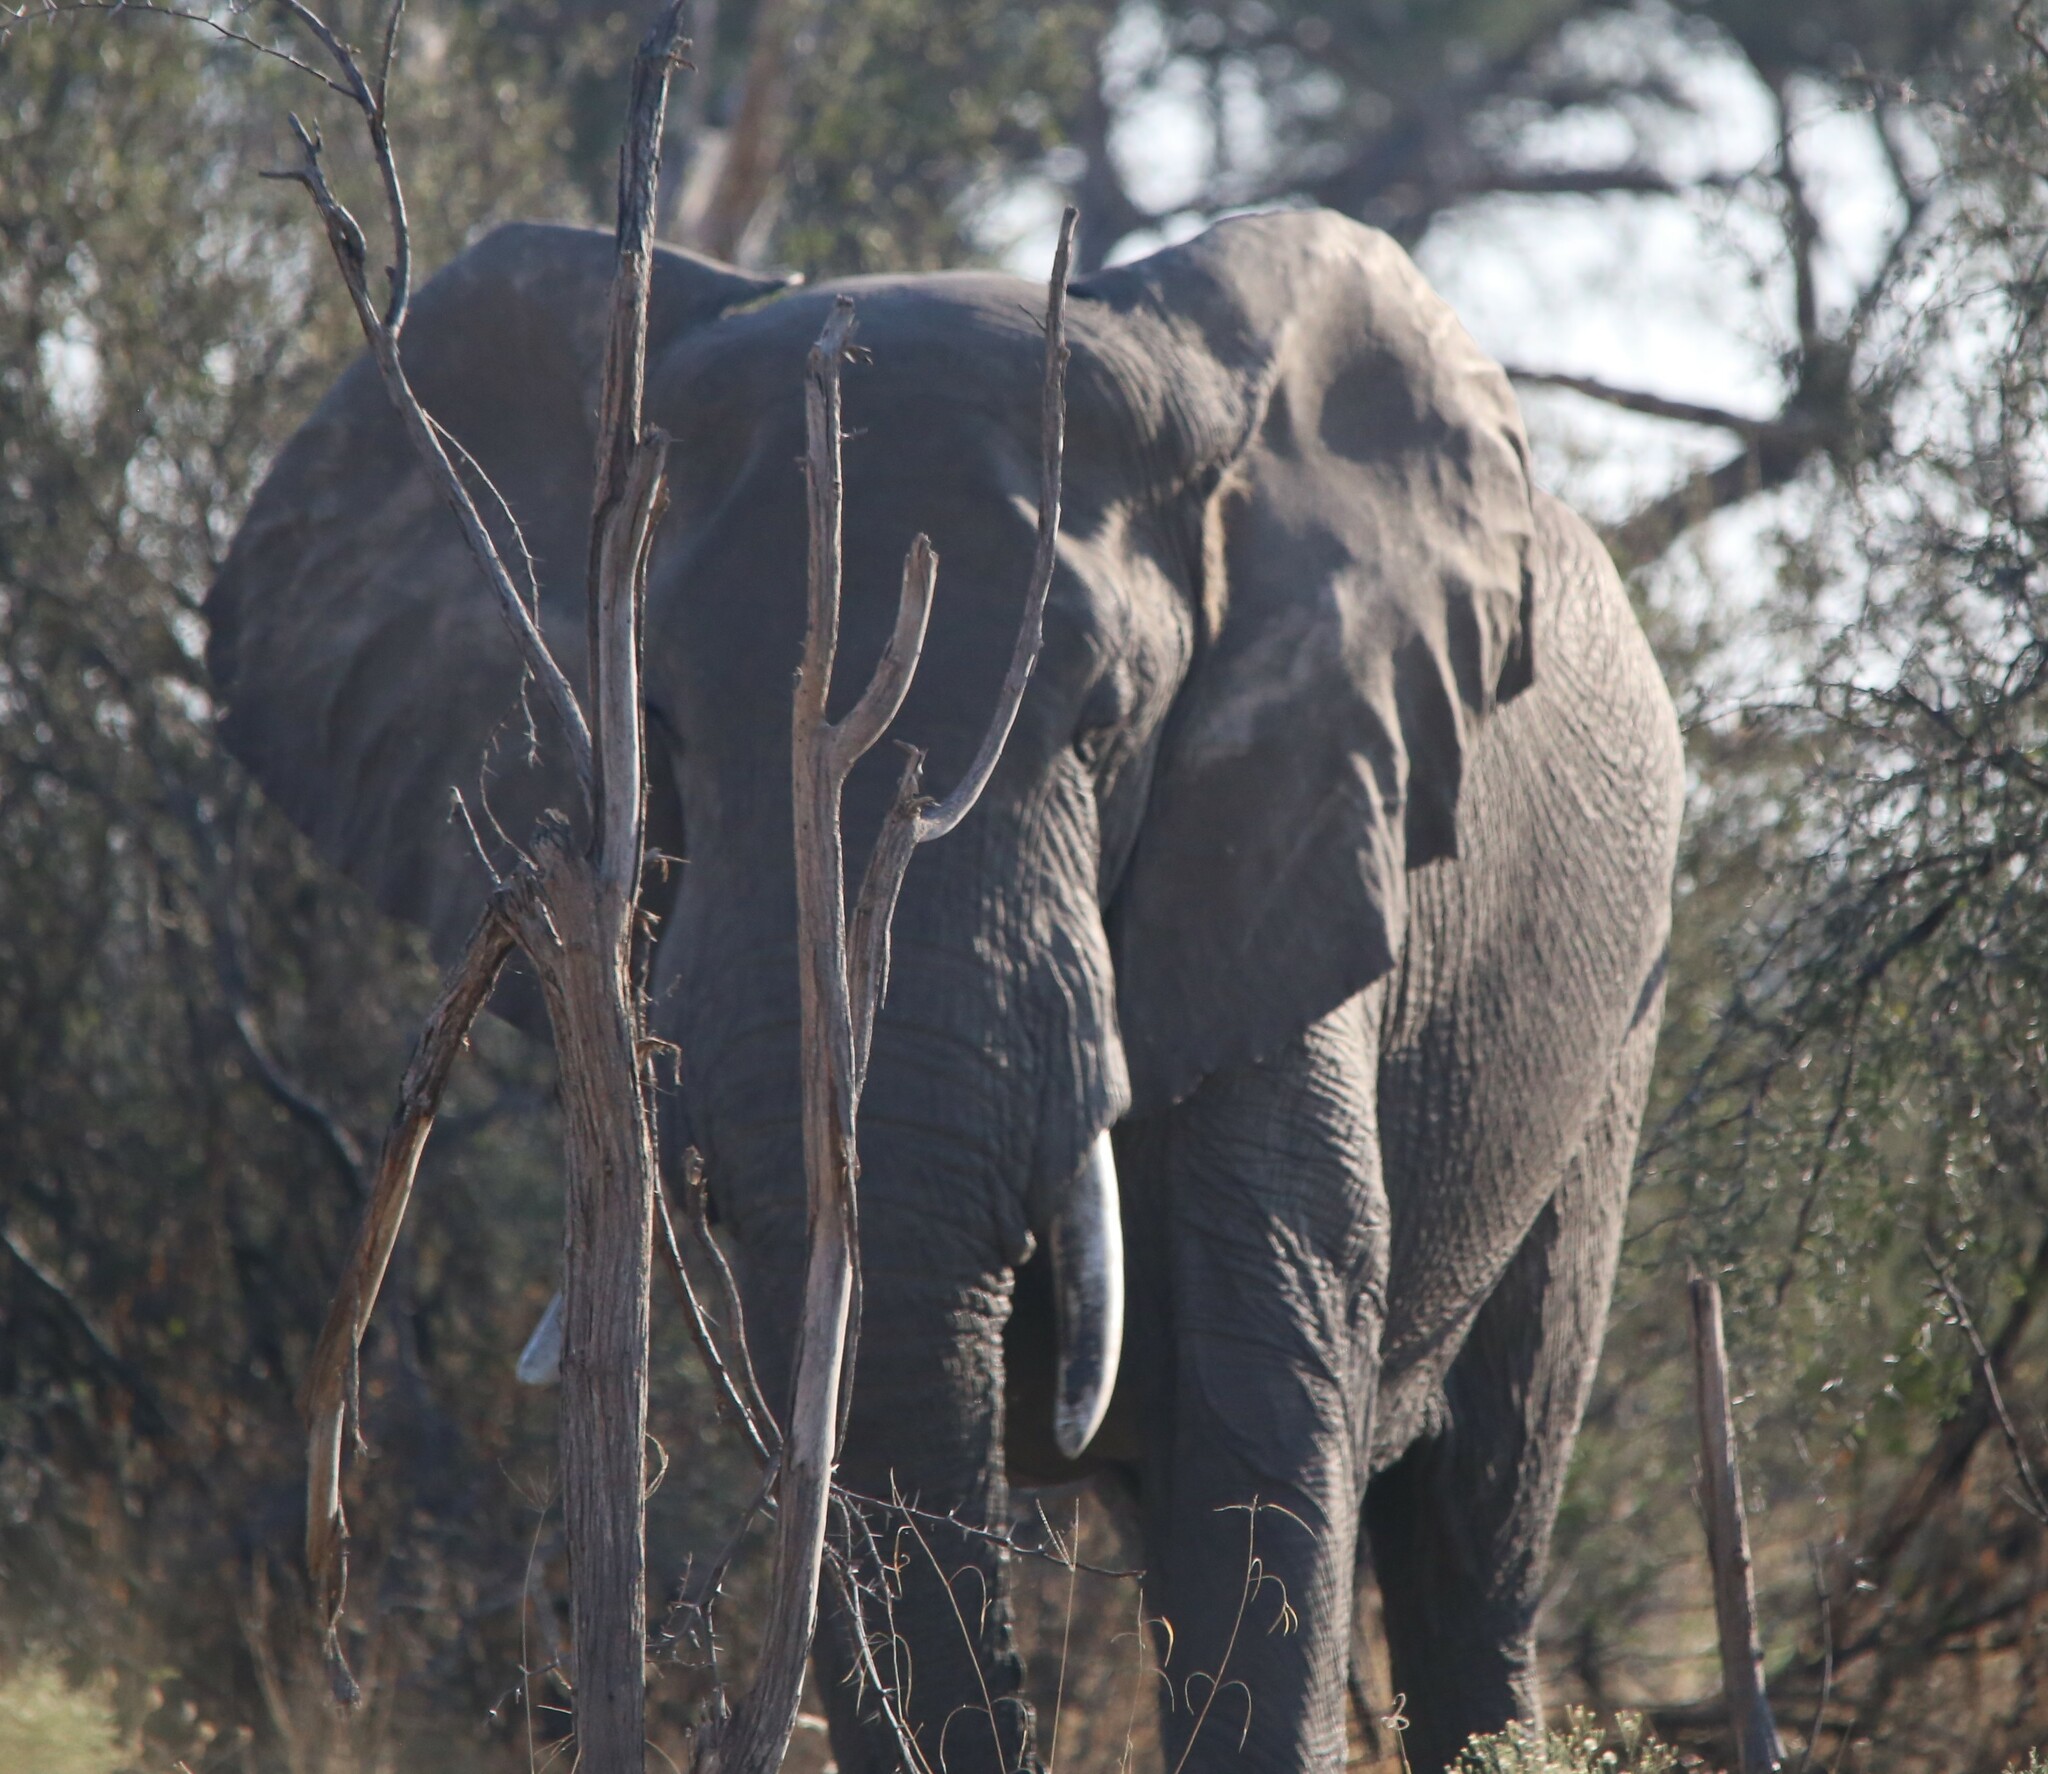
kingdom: Animalia
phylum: Chordata
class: Mammalia
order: Proboscidea
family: Elephantidae
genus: Loxodonta
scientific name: Loxodonta africana
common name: African elephant
